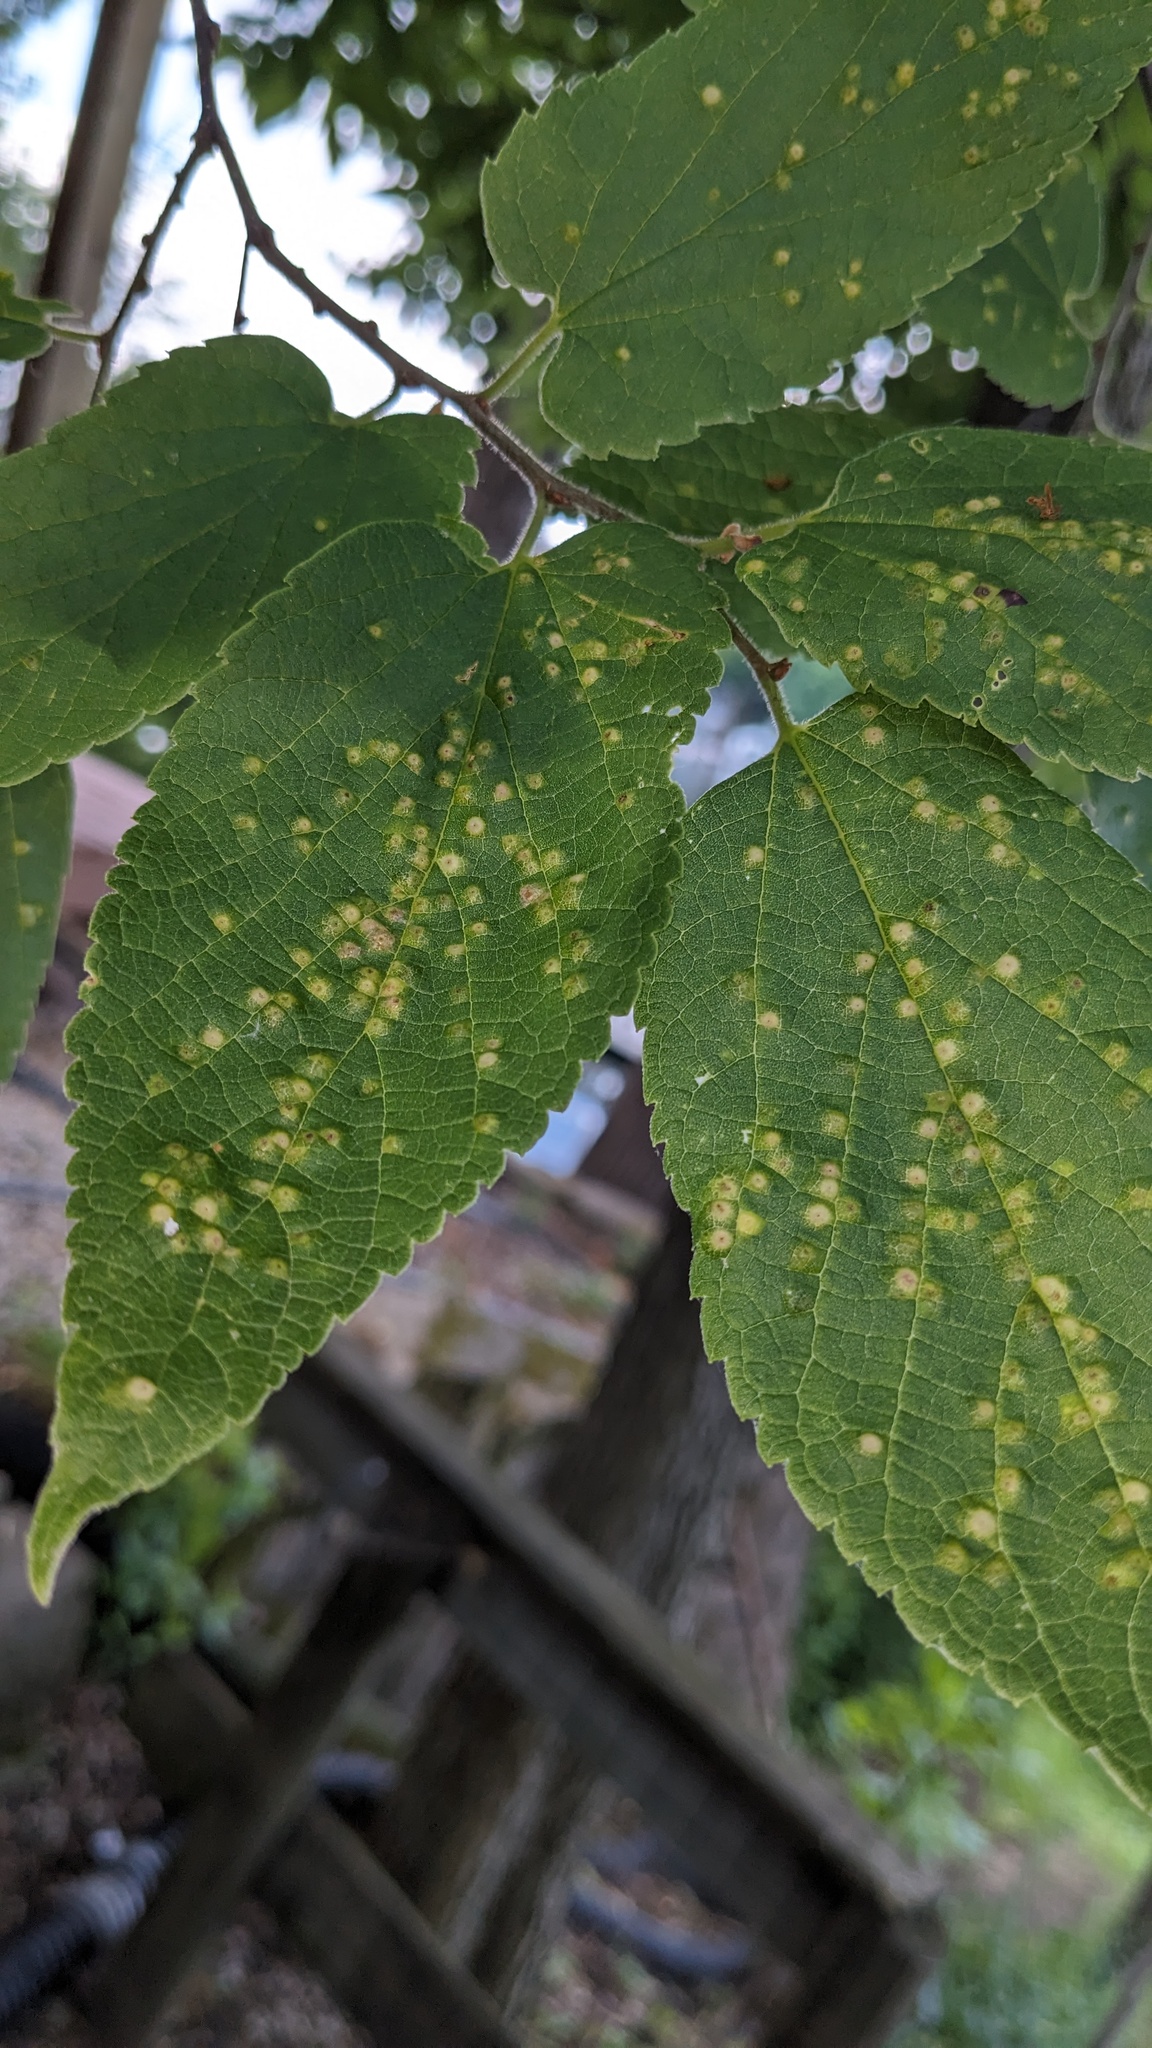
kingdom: Animalia
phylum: Arthropoda
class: Insecta
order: Hemiptera
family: Aphalaridae
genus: Pachypsylla
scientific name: Pachypsylla celtidisvesicula
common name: Hackberry blister gall psyllid
